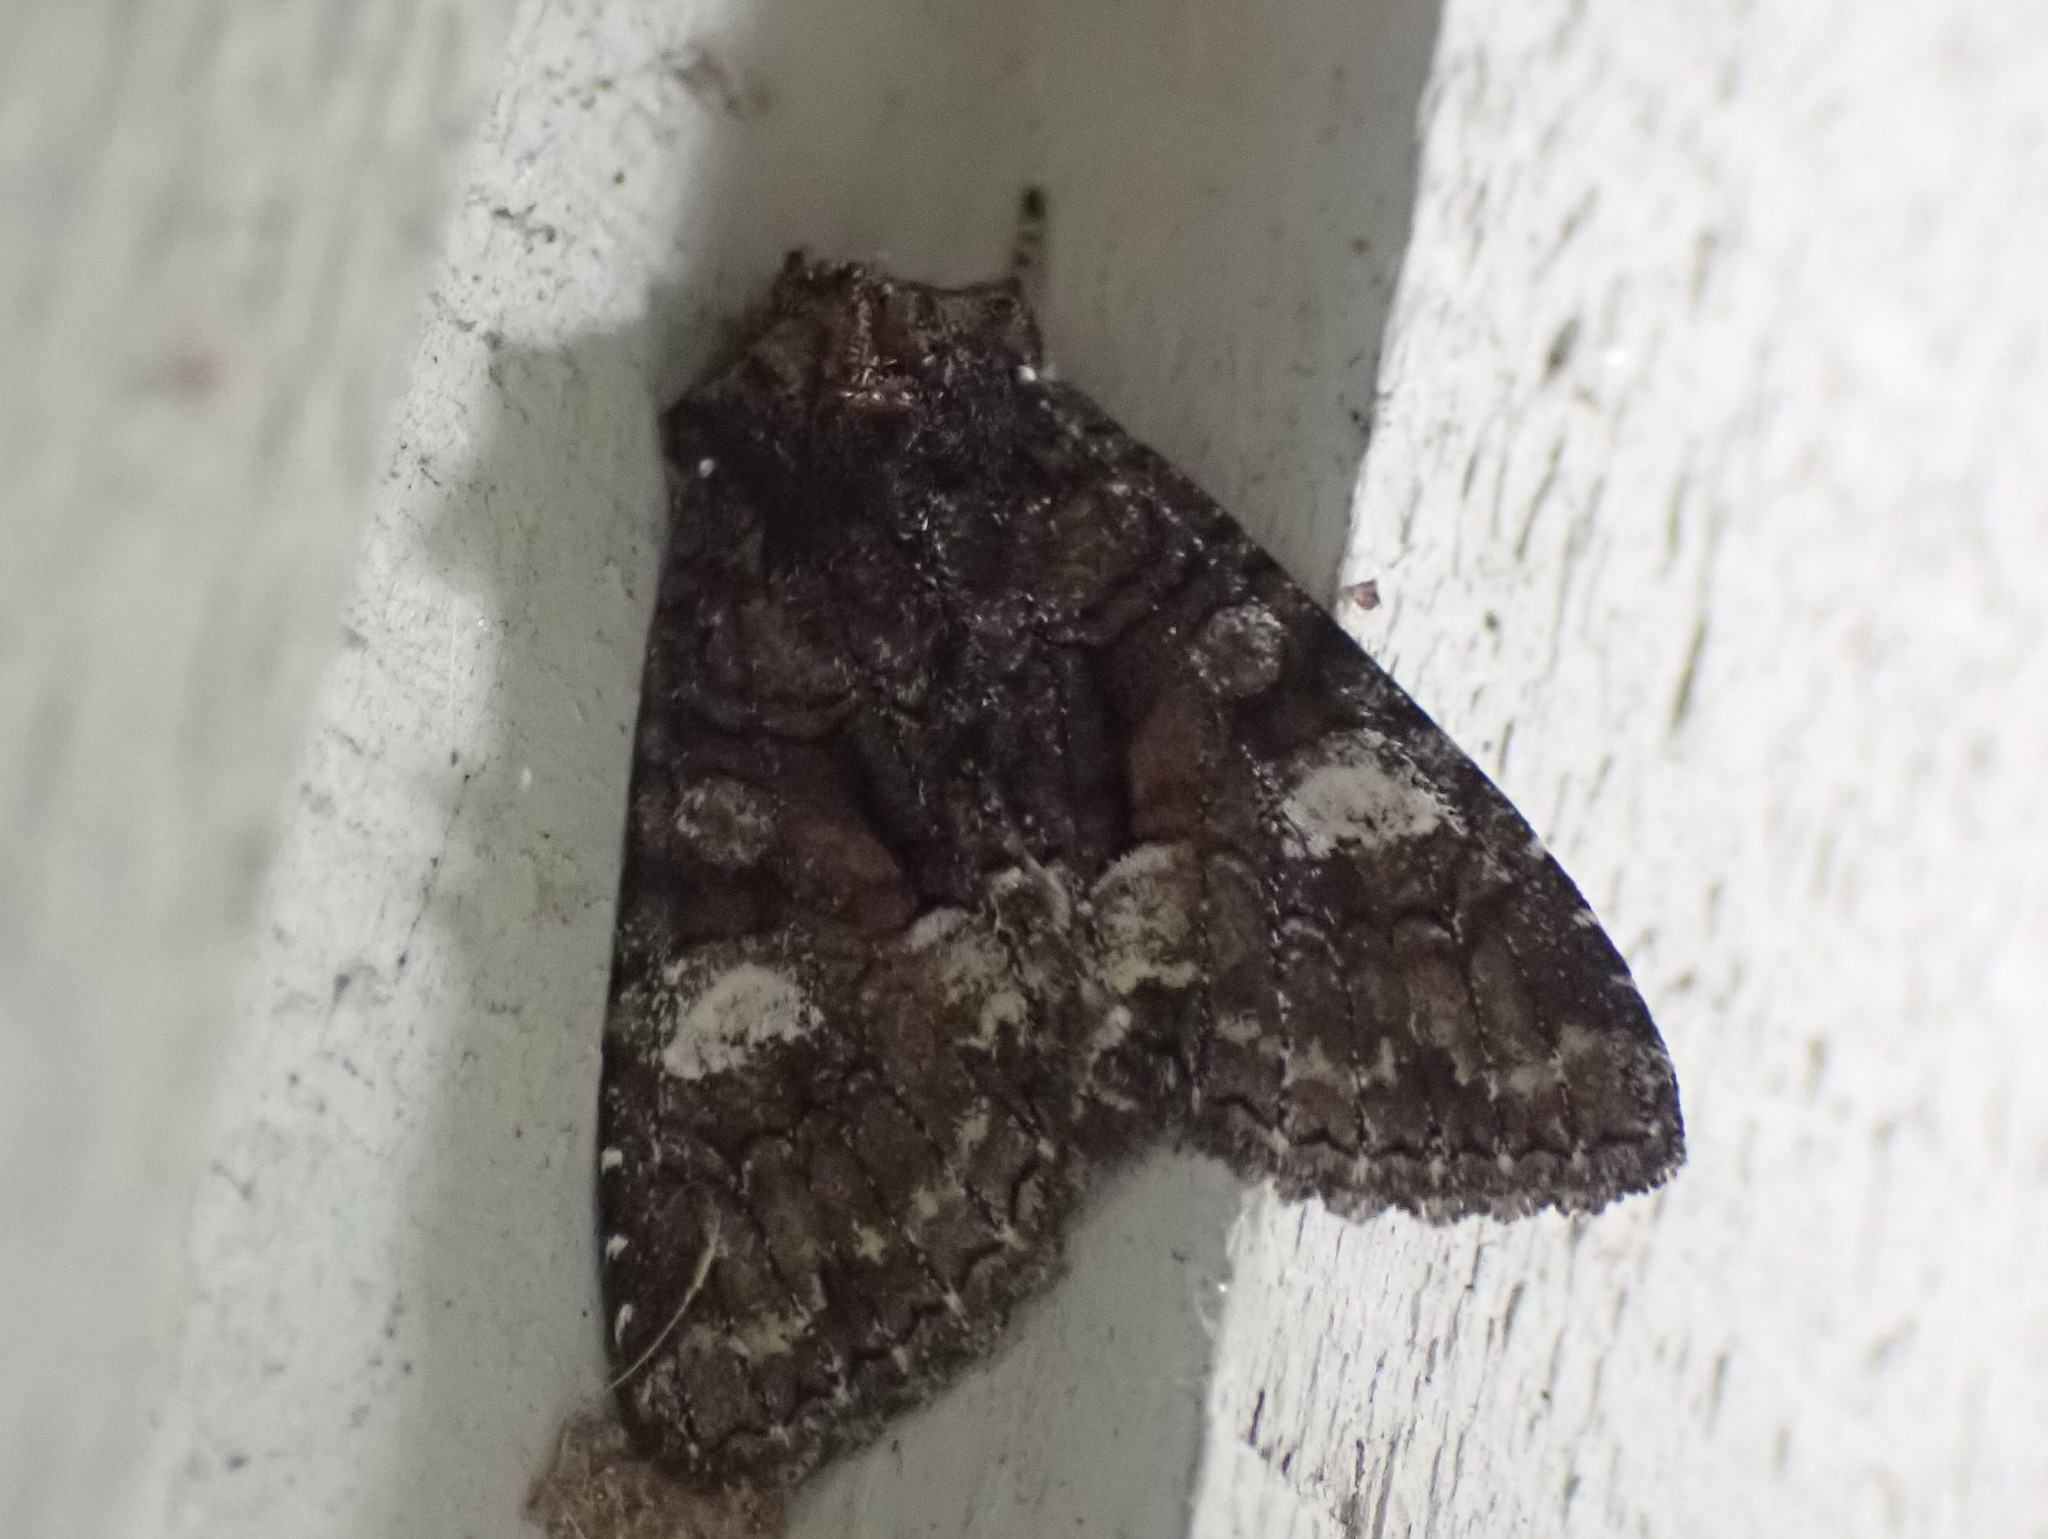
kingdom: Animalia
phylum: Arthropoda
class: Insecta
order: Lepidoptera
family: Noctuidae
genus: Fishia
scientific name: Fishia illocata
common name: Wandering brocade moth
